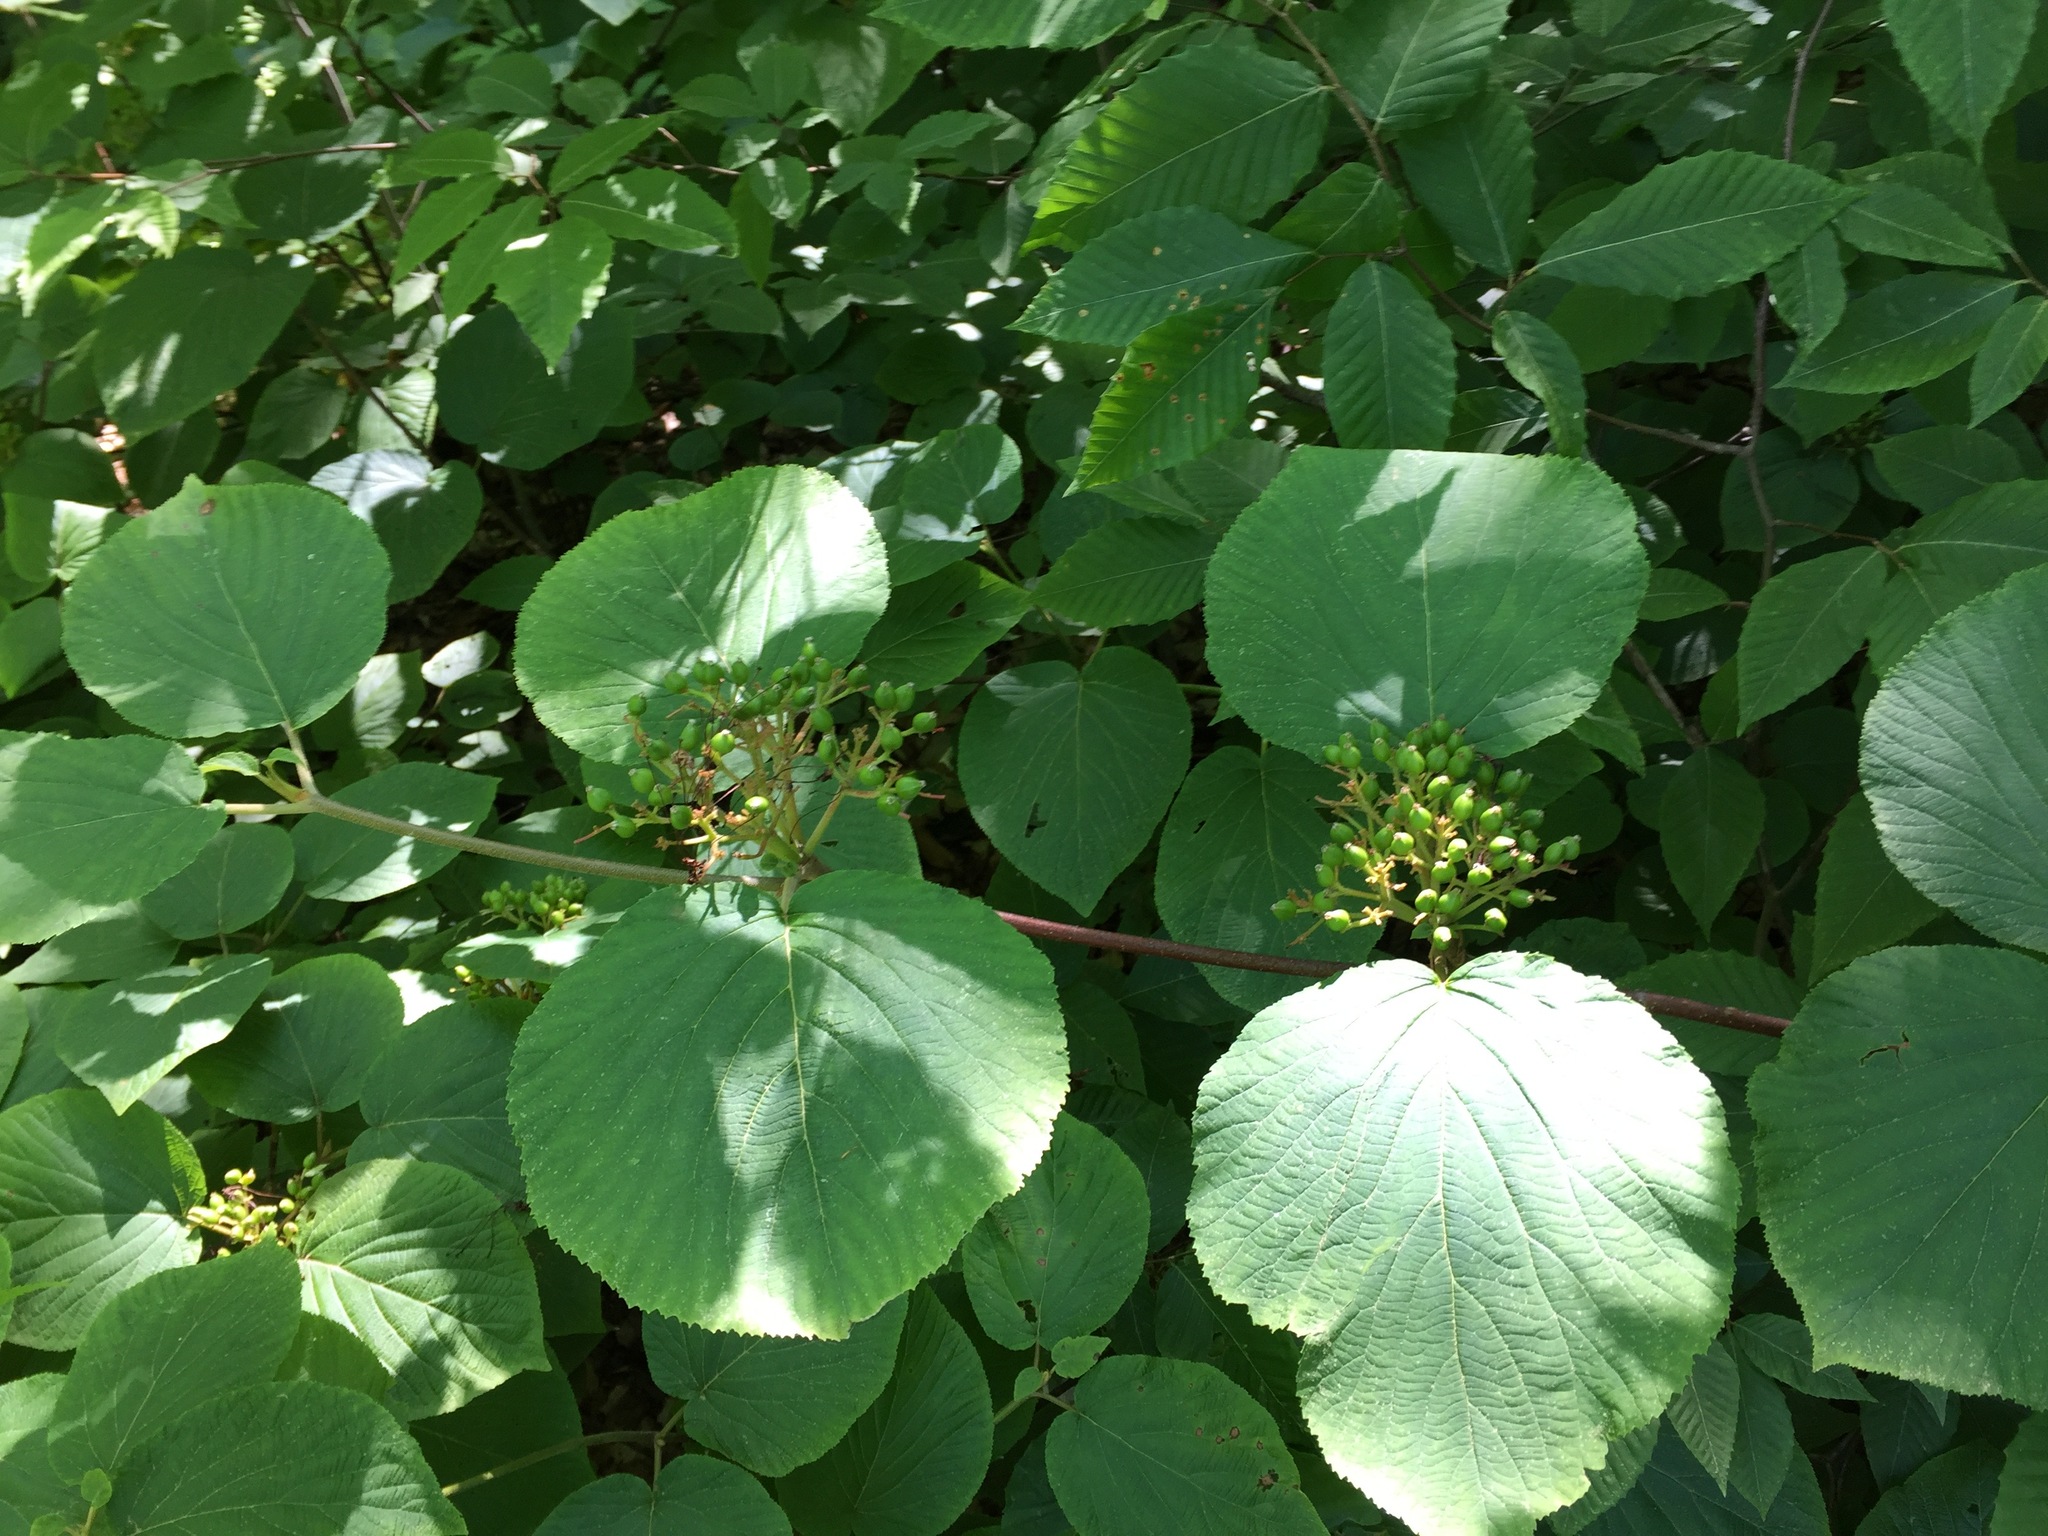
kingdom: Plantae
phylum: Tracheophyta
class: Magnoliopsida
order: Dipsacales
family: Viburnaceae
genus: Viburnum
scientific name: Viburnum lantanoides
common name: Hobblebush
